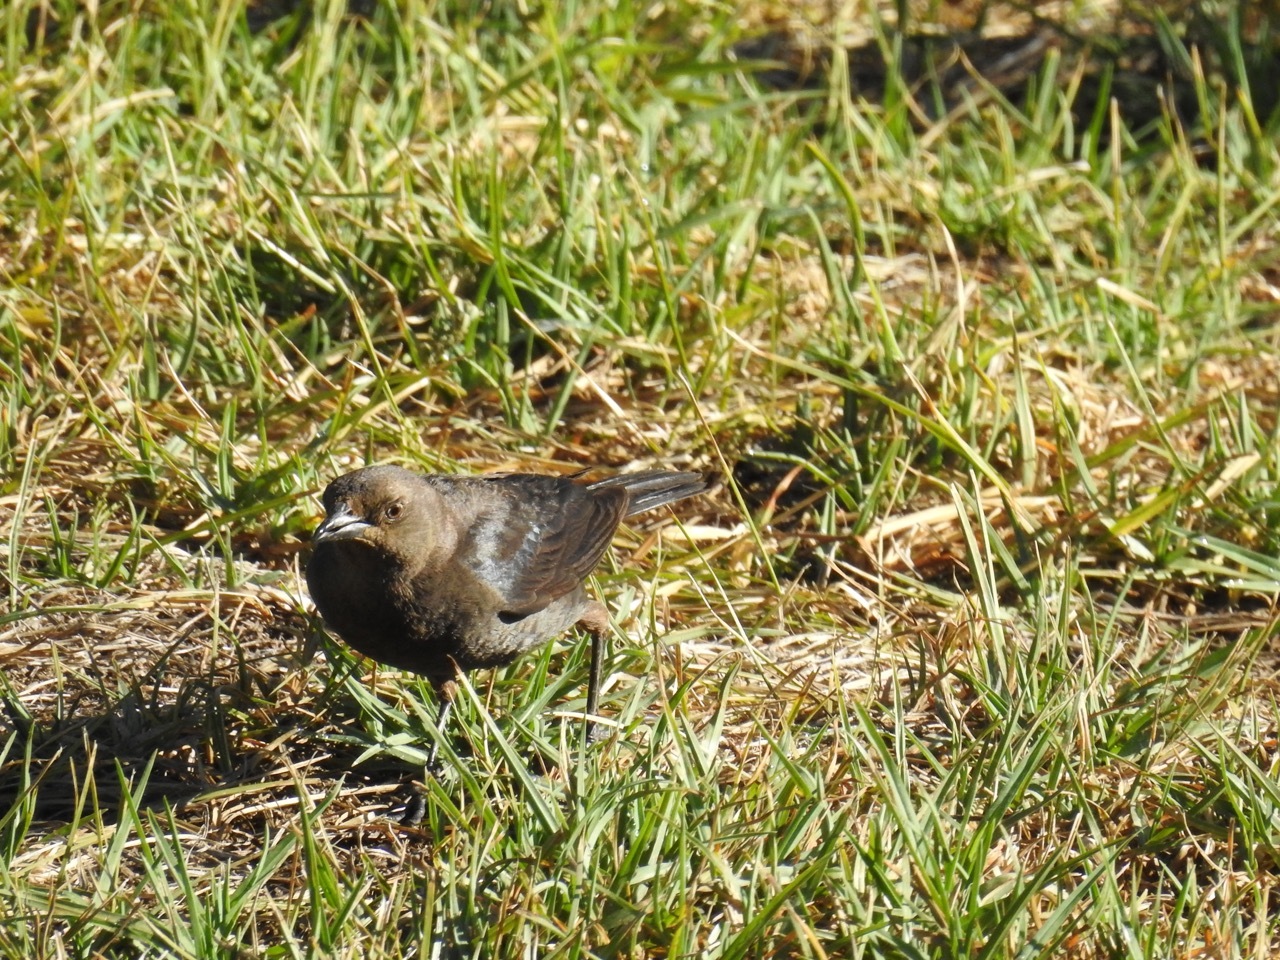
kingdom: Animalia
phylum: Chordata
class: Aves
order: Passeriformes
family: Icteridae
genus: Euphagus
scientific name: Euphagus cyanocephalus
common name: Brewer's blackbird
